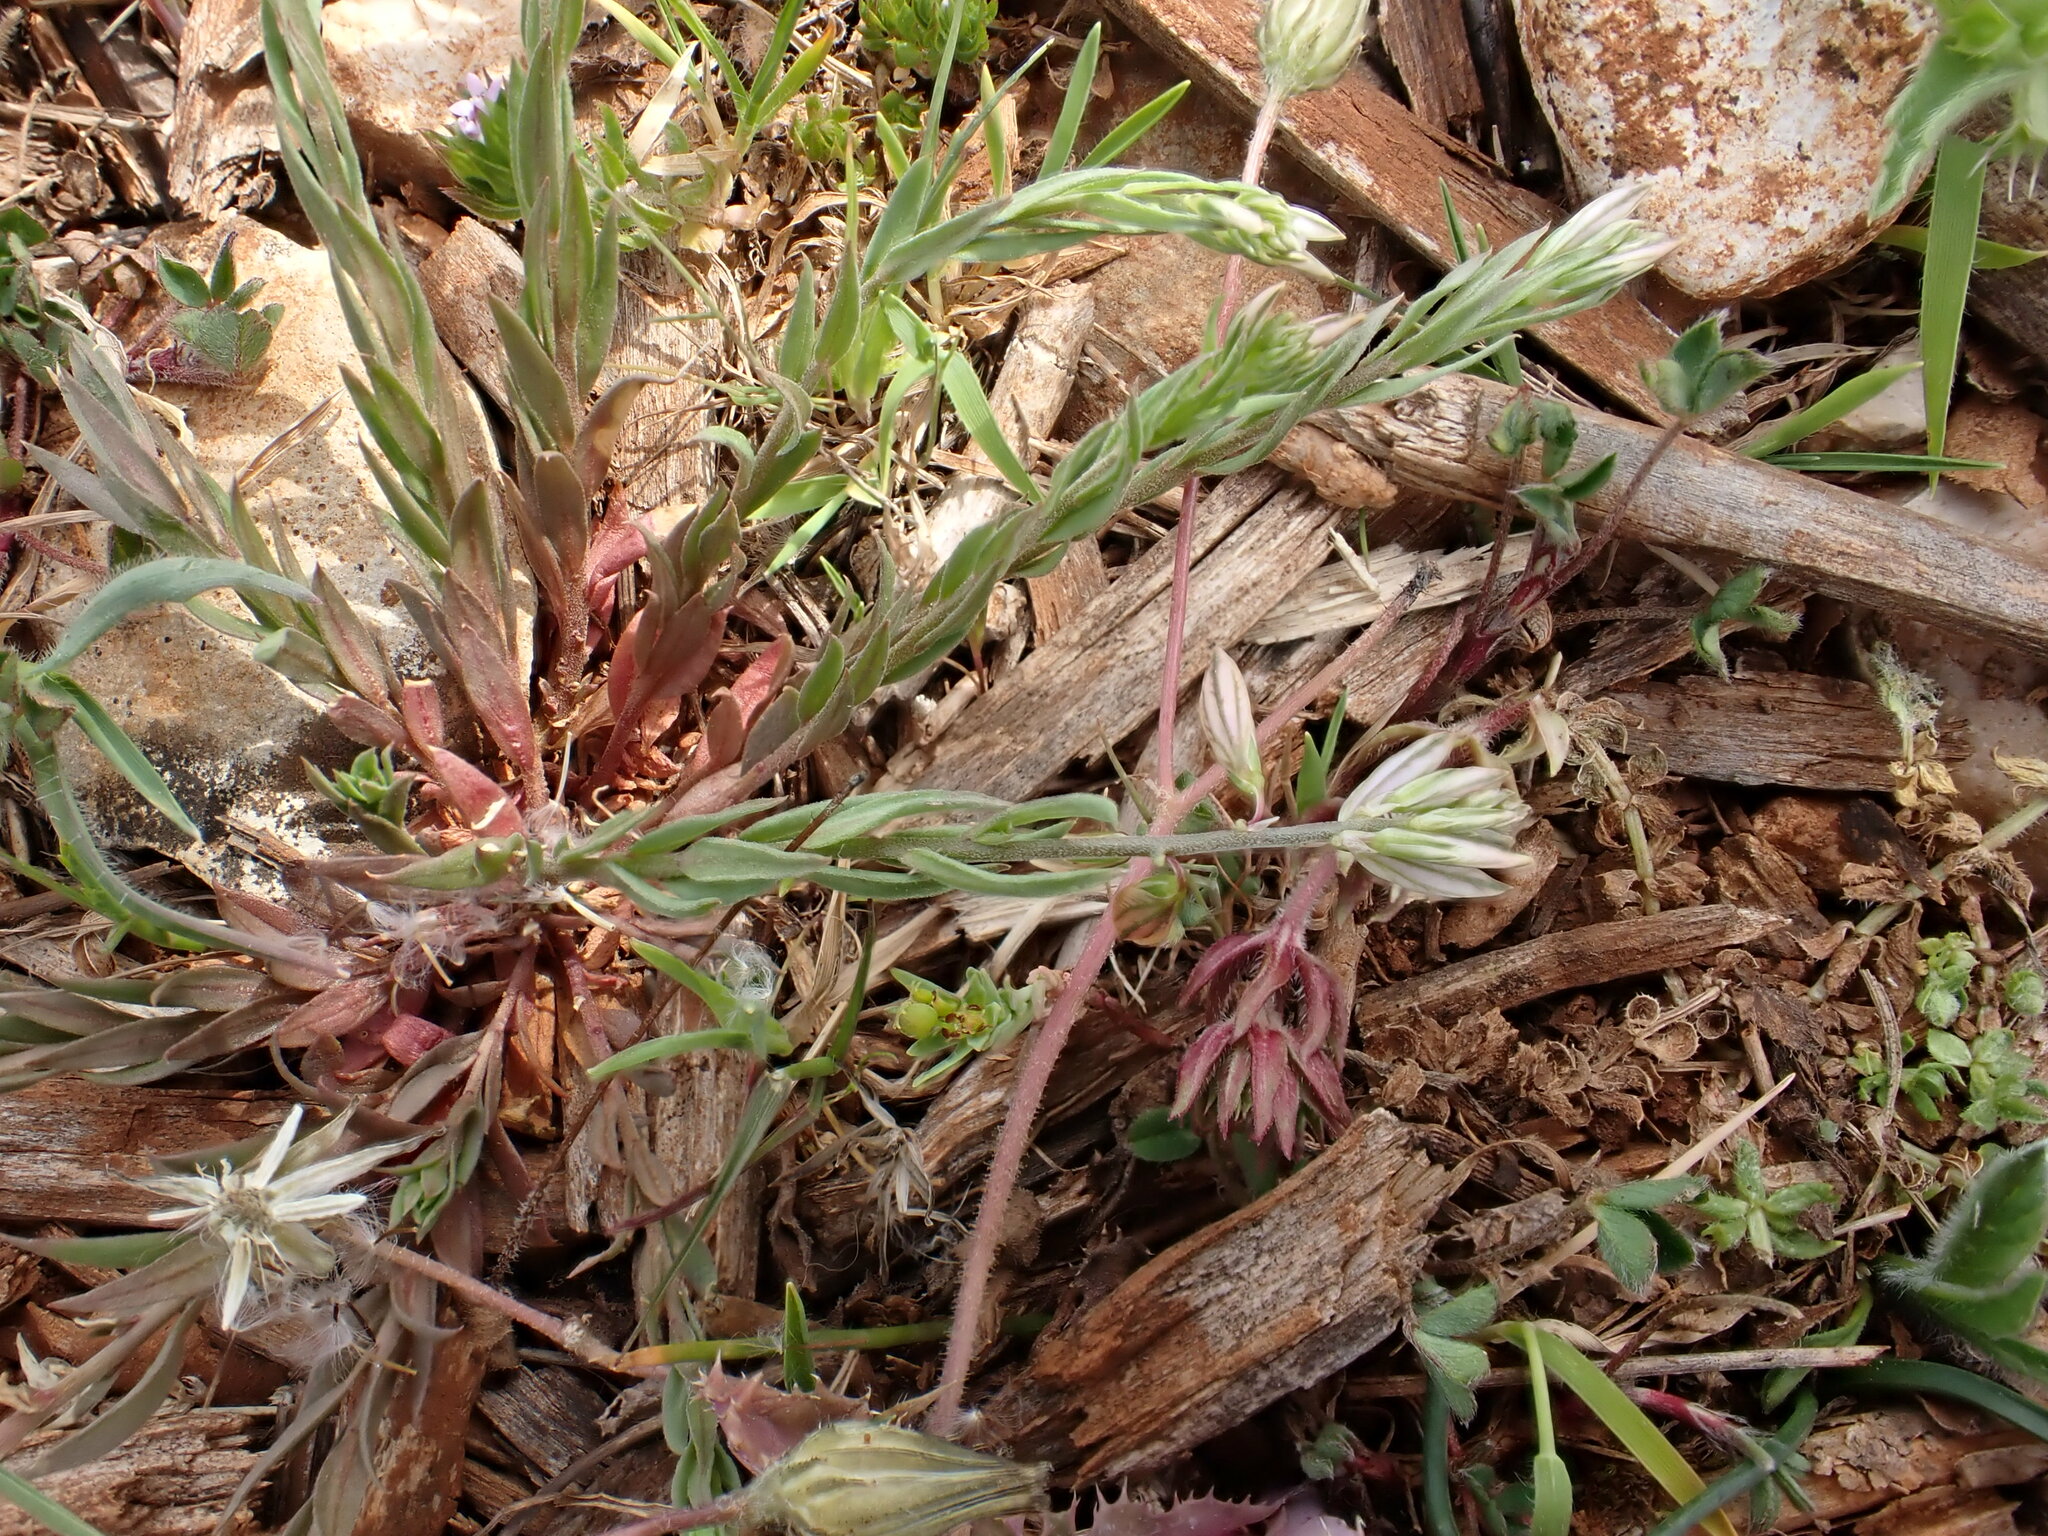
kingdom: Plantae
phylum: Tracheophyta
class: Magnoliopsida
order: Fabales
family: Polygalaceae
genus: Polygala
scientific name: Polygala monspeliaca
